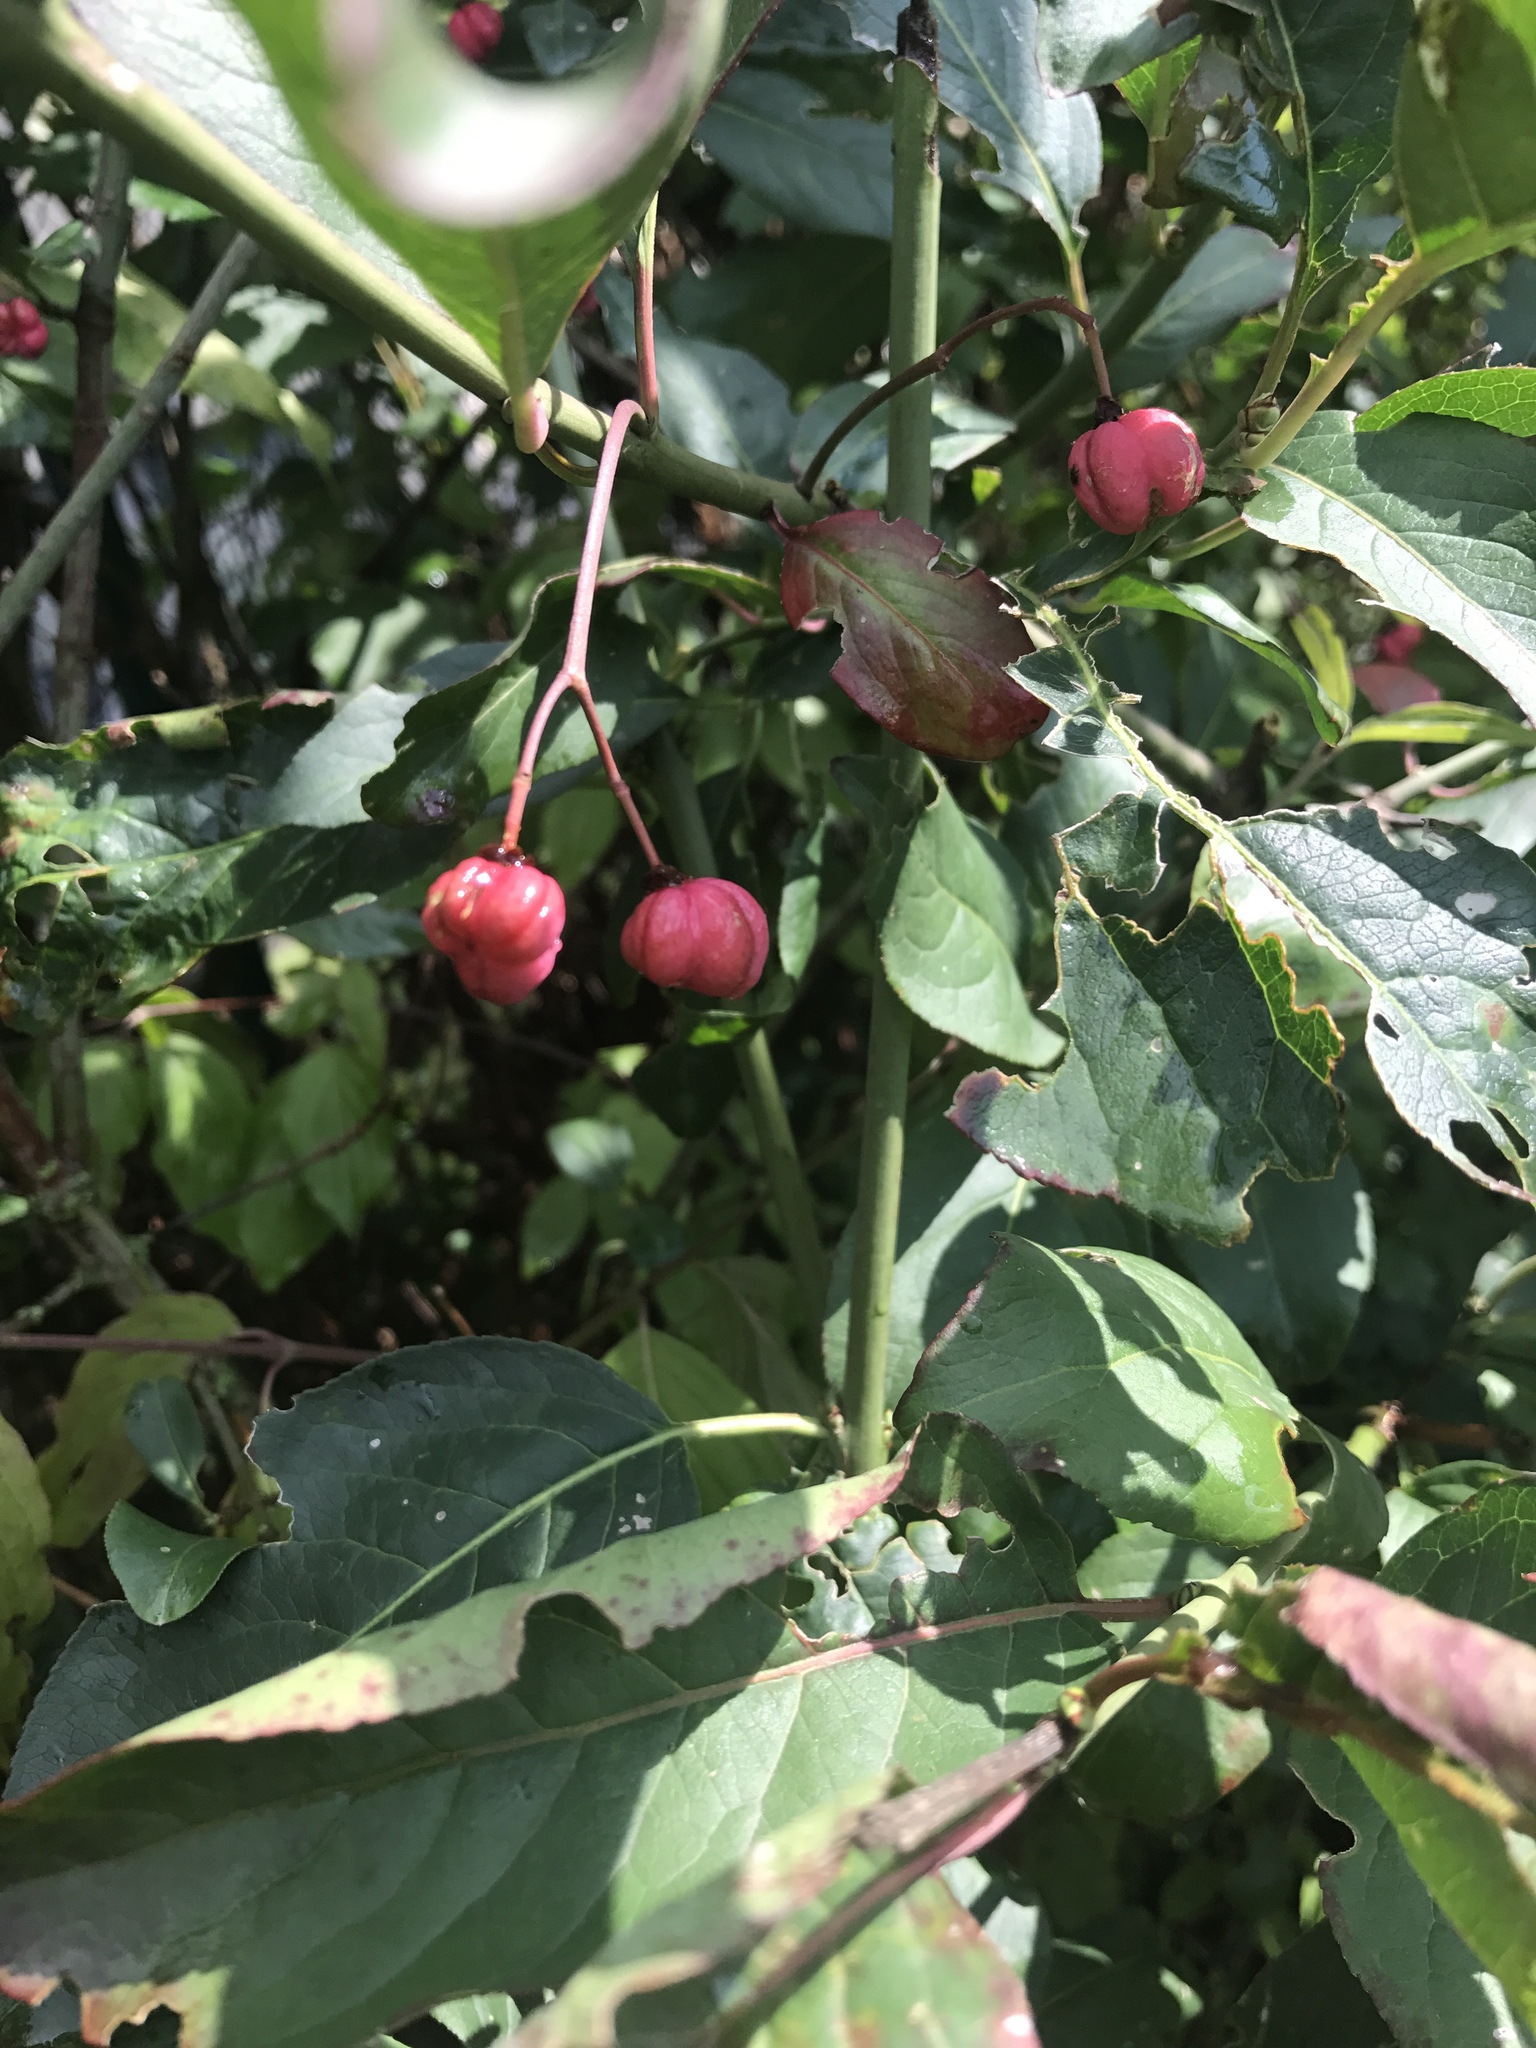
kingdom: Plantae
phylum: Tracheophyta
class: Magnoliopsida
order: Celastrales
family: Celastraceae
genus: Euonymus
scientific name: Euonymus europaeus
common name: Spindle
